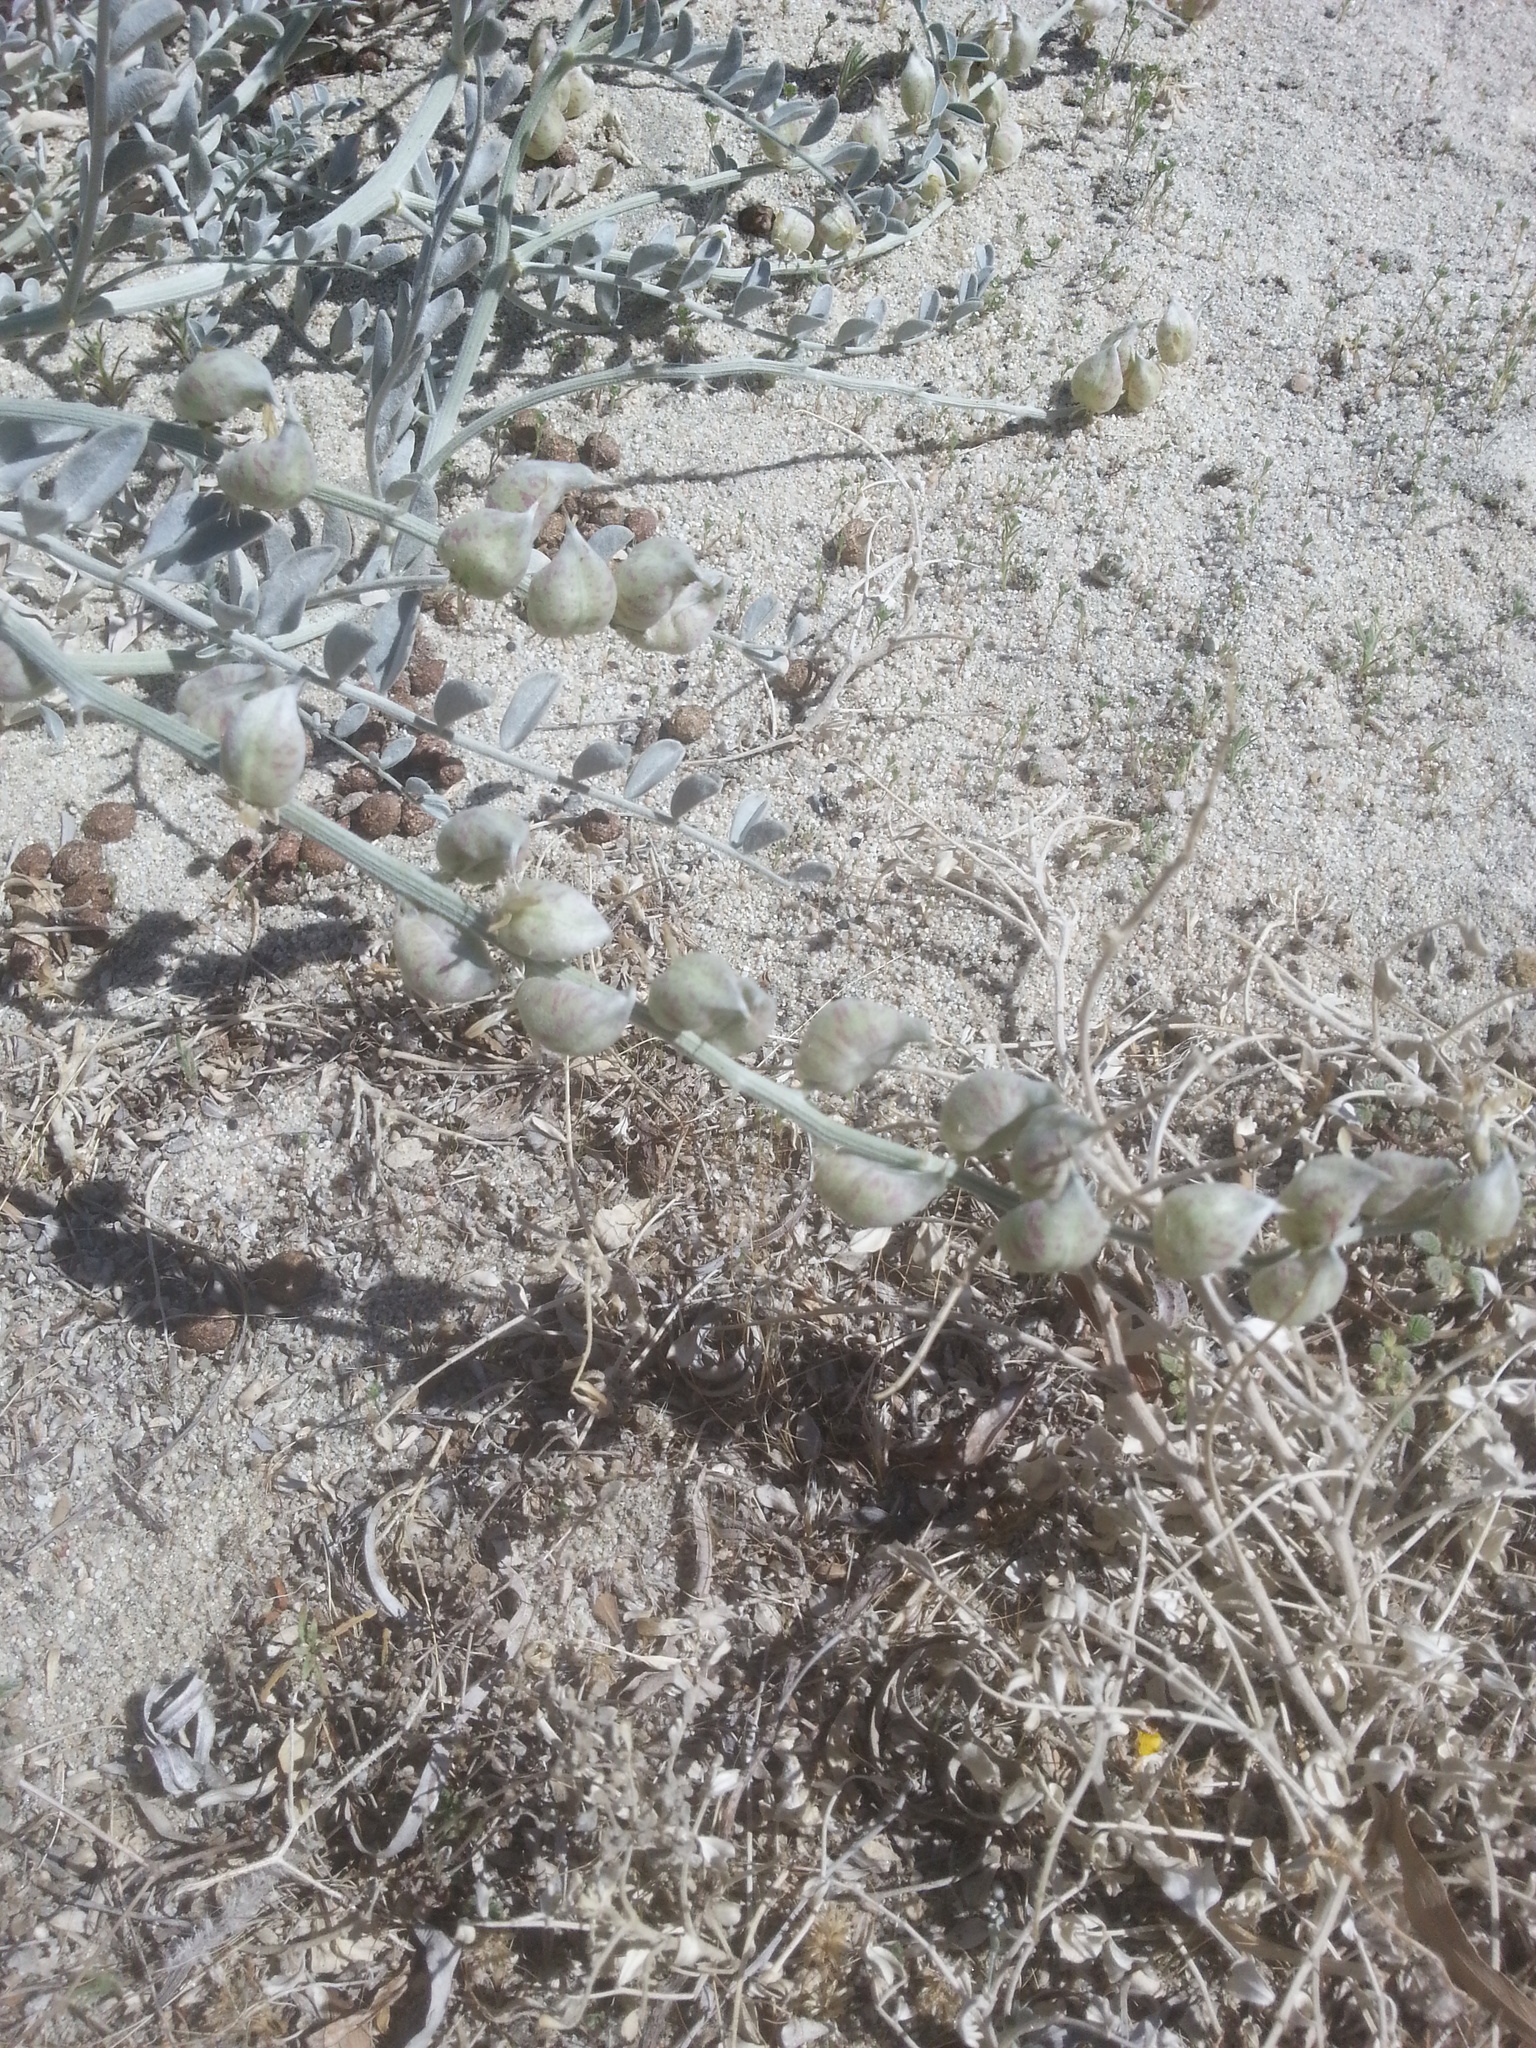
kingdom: Plantae
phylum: Tracheophyta
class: Magnoliopsida
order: Fabales
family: Fabaceae
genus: Astragalus
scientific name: Astragalus lentiginosus
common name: Freckled milkvetch
